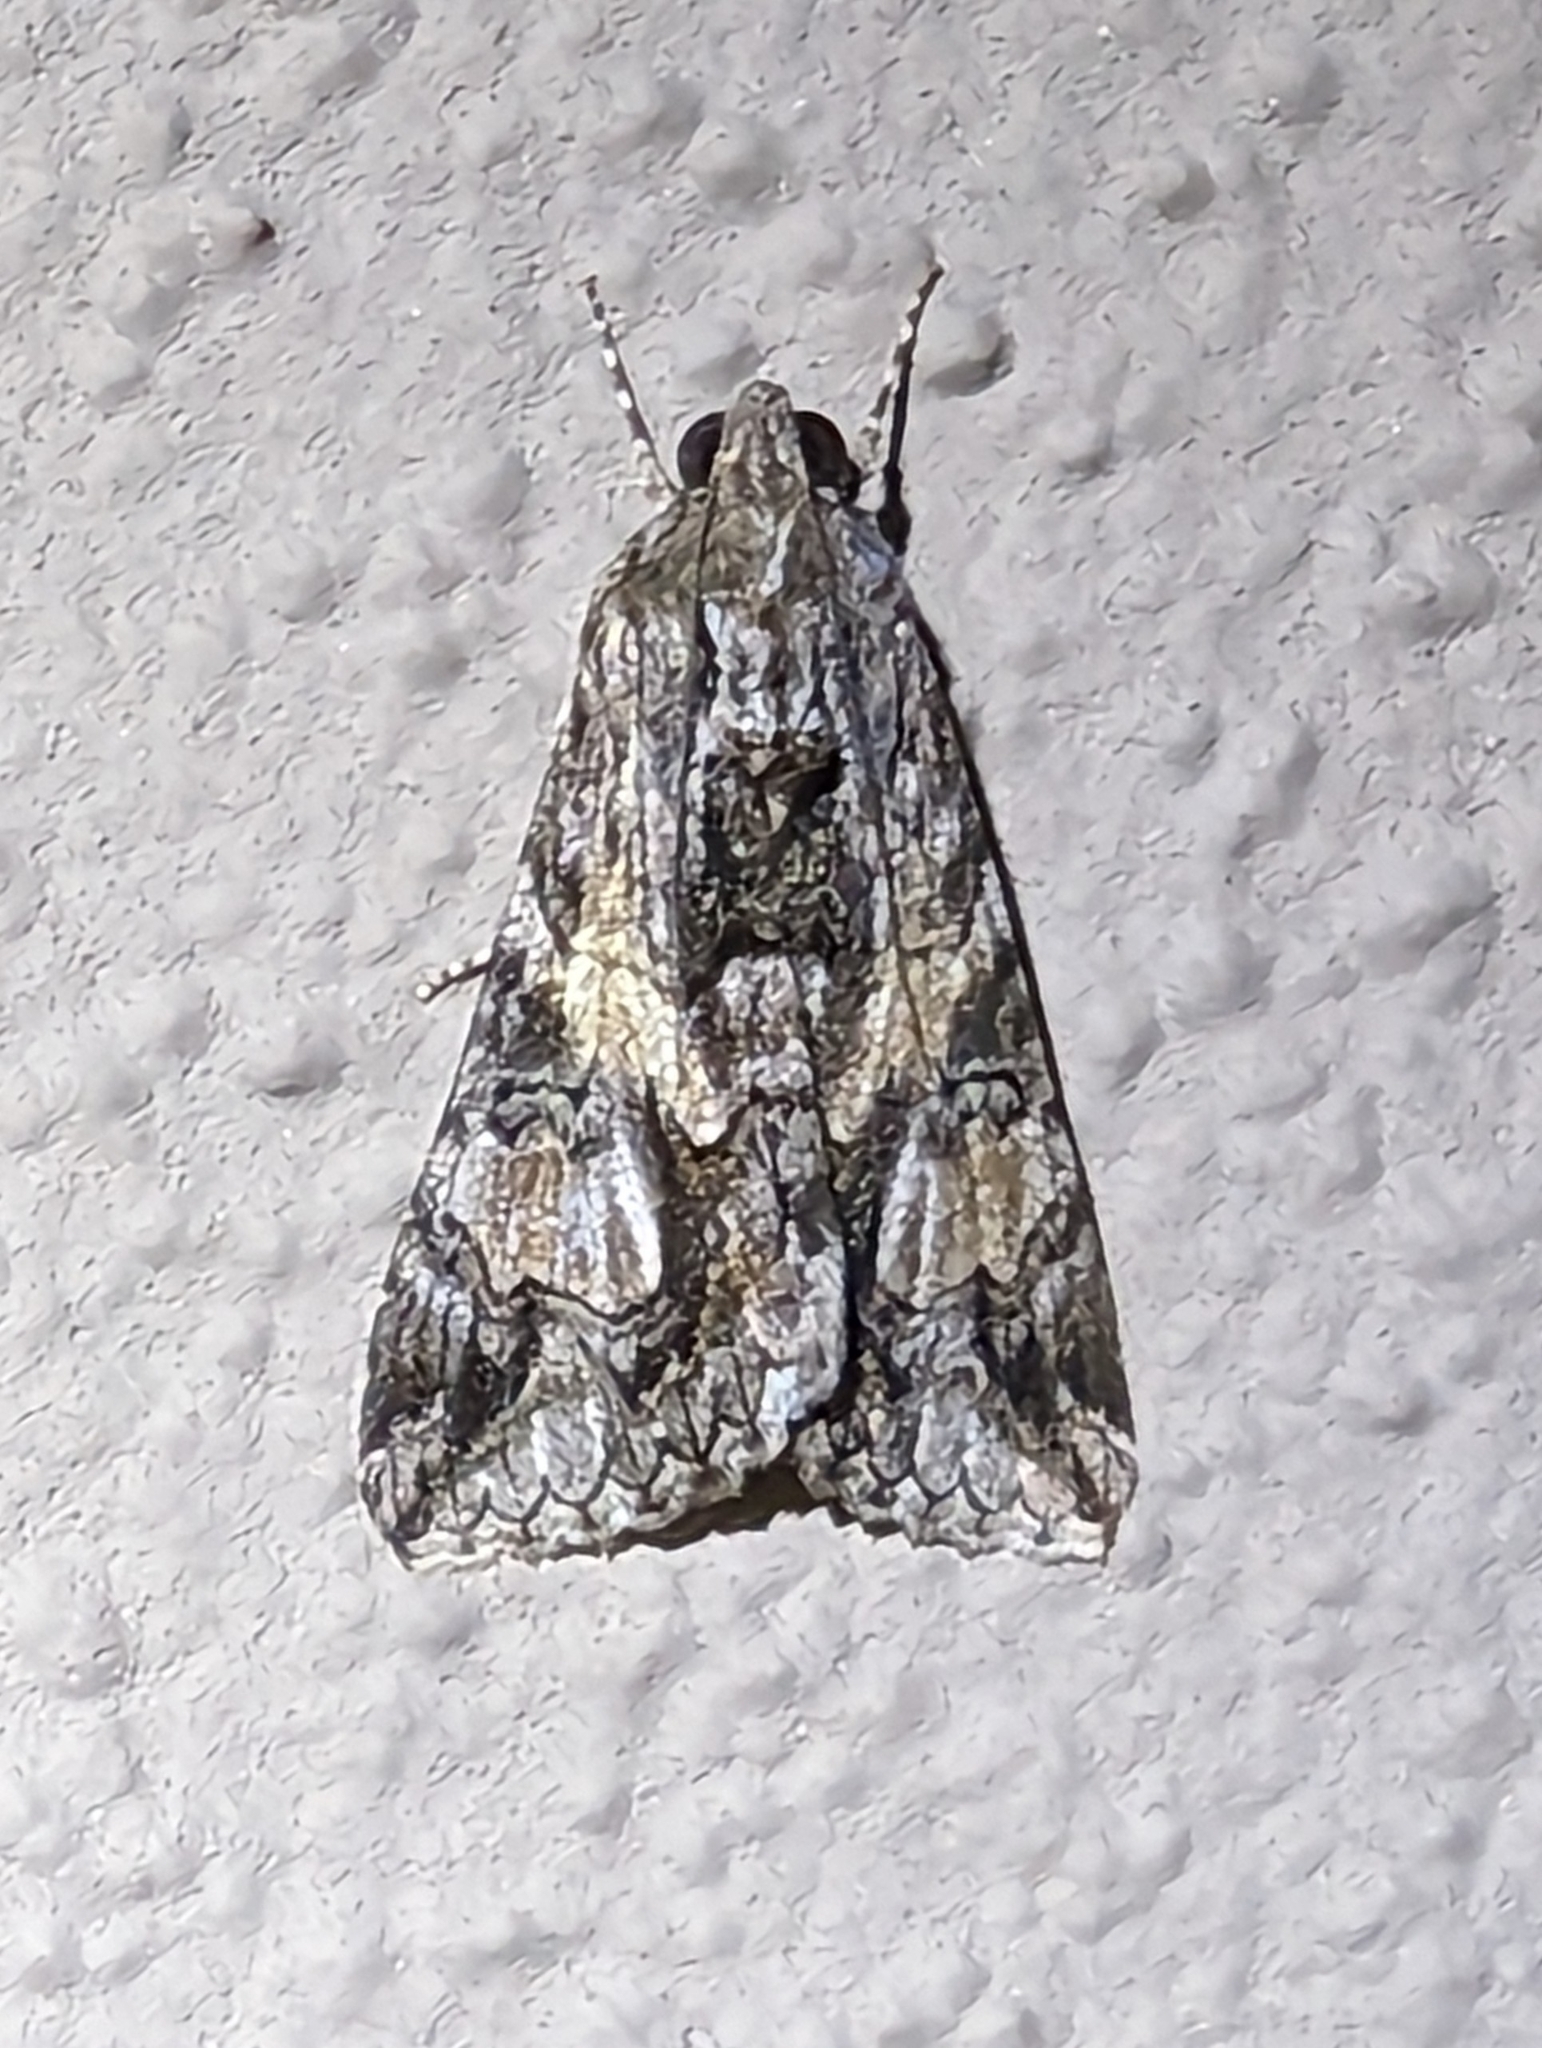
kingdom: Animalia
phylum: Arthropoda
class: Insecta
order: Lepidoptera
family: Erebidae
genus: Melipotis
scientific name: Melipotis jucunda
